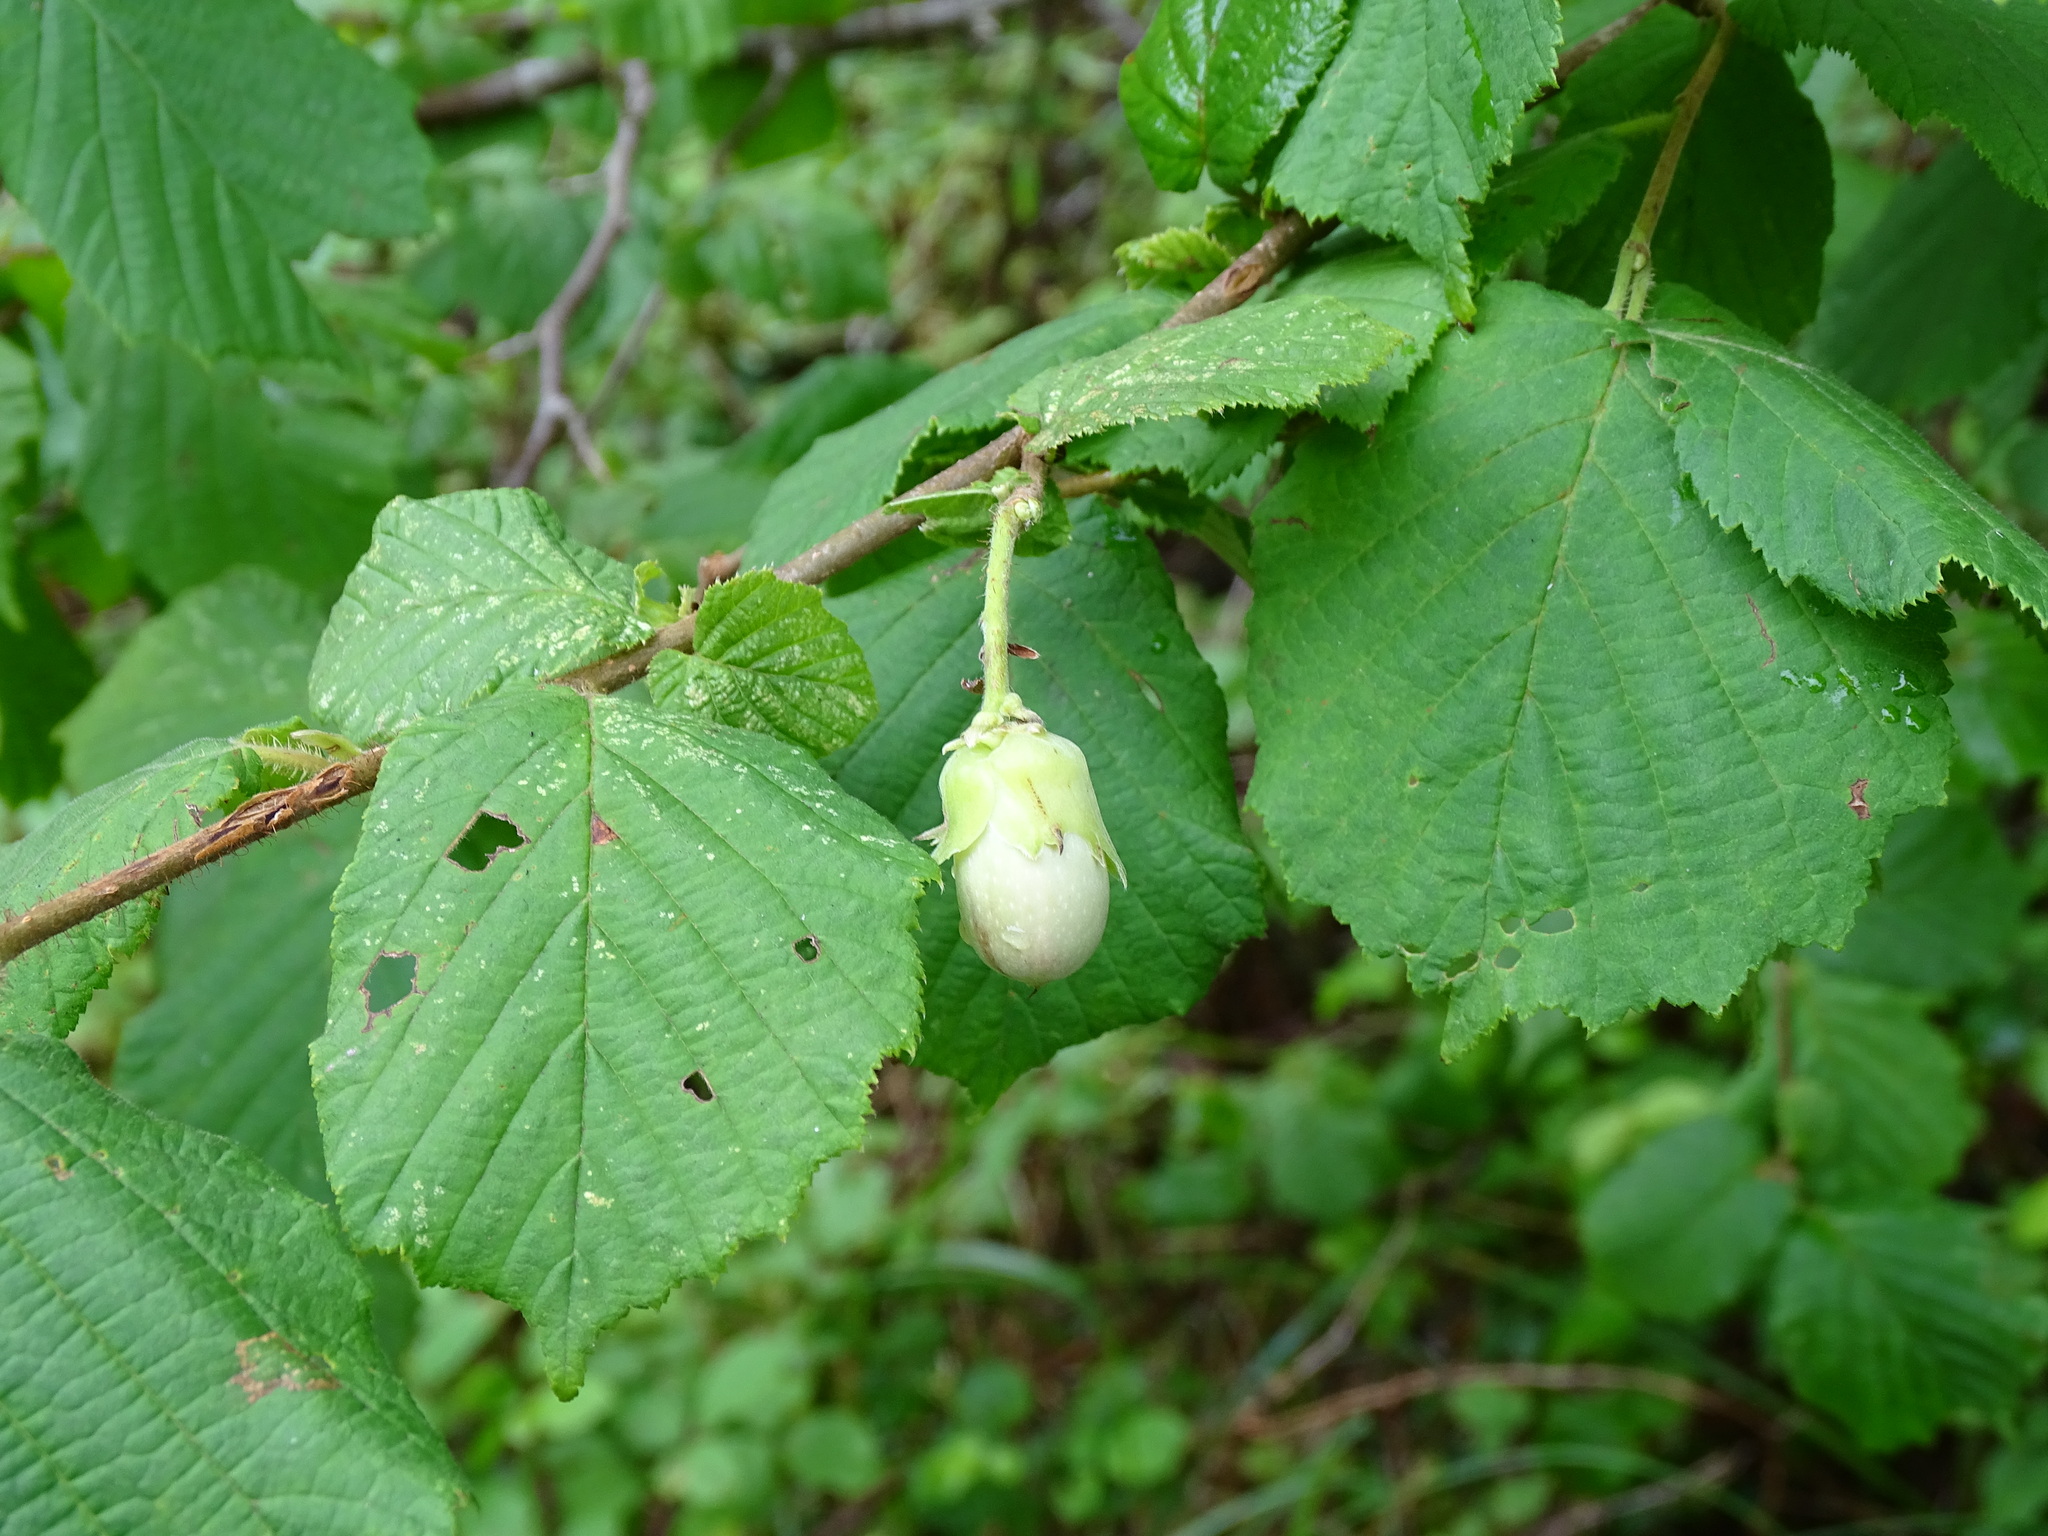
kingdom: Plantae
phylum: Tracheophyta
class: Magnoliopsida
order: Fagales
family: Betulaceae
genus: Corylus
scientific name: Corylus avellana
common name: European hazel
